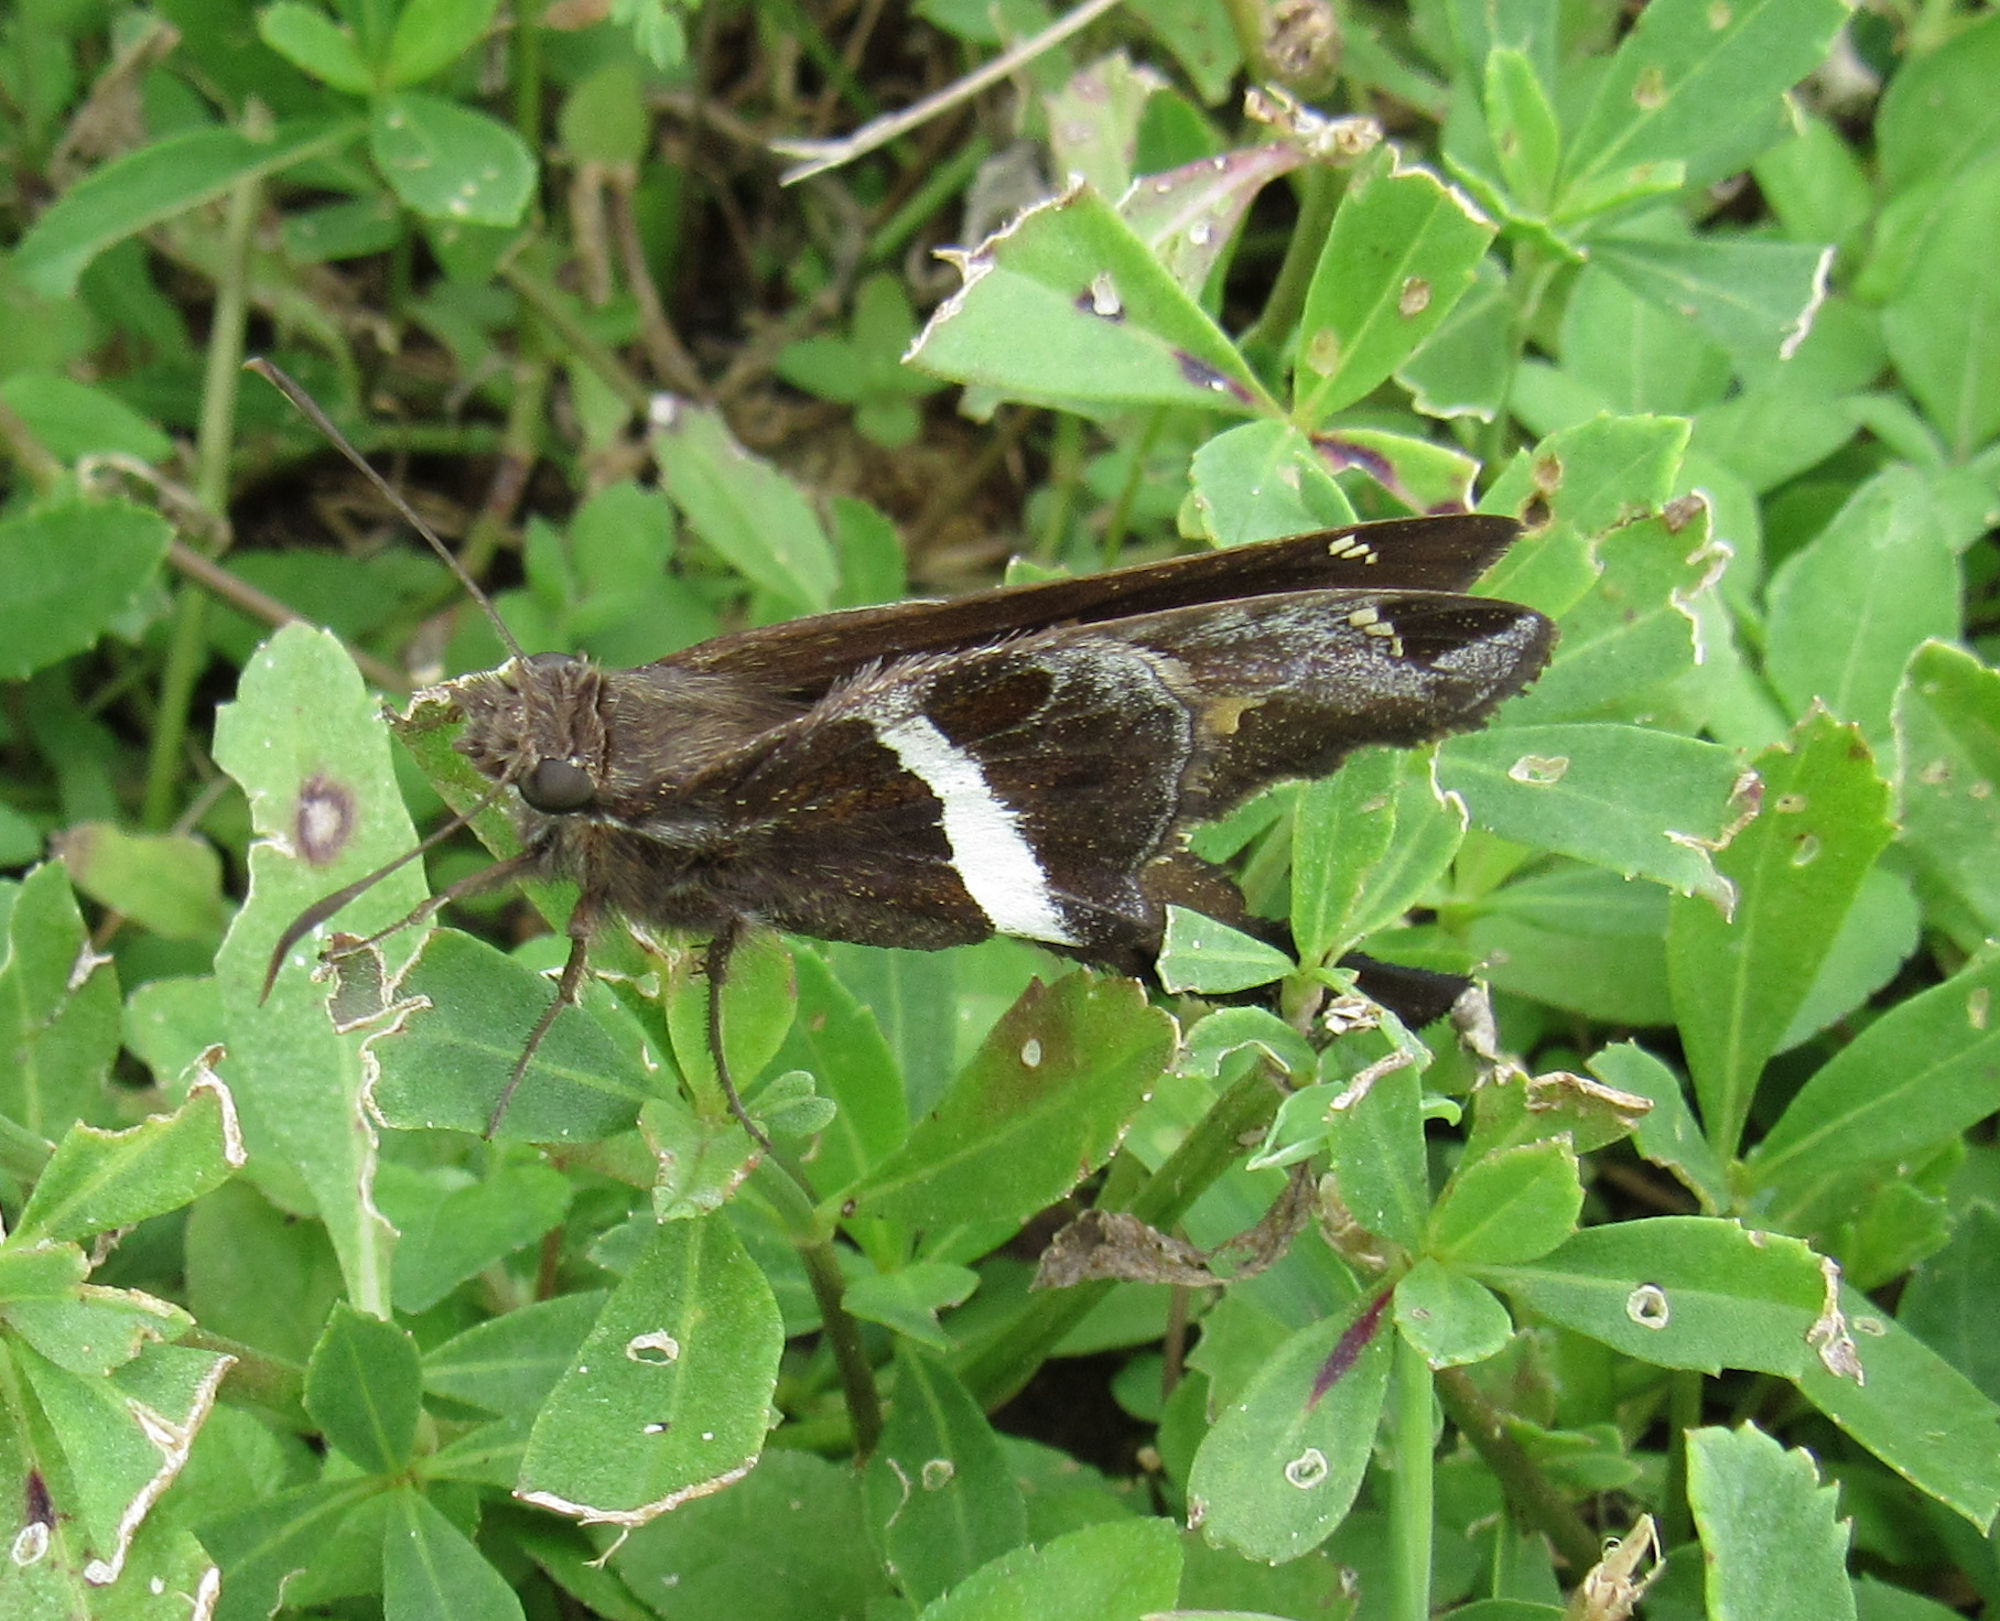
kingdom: Animalia
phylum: Arthropoda
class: Insecta
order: Lepidoptera
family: Hesperiidae
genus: Chioides
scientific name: Chioides catillus
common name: Silverbanded skipper
